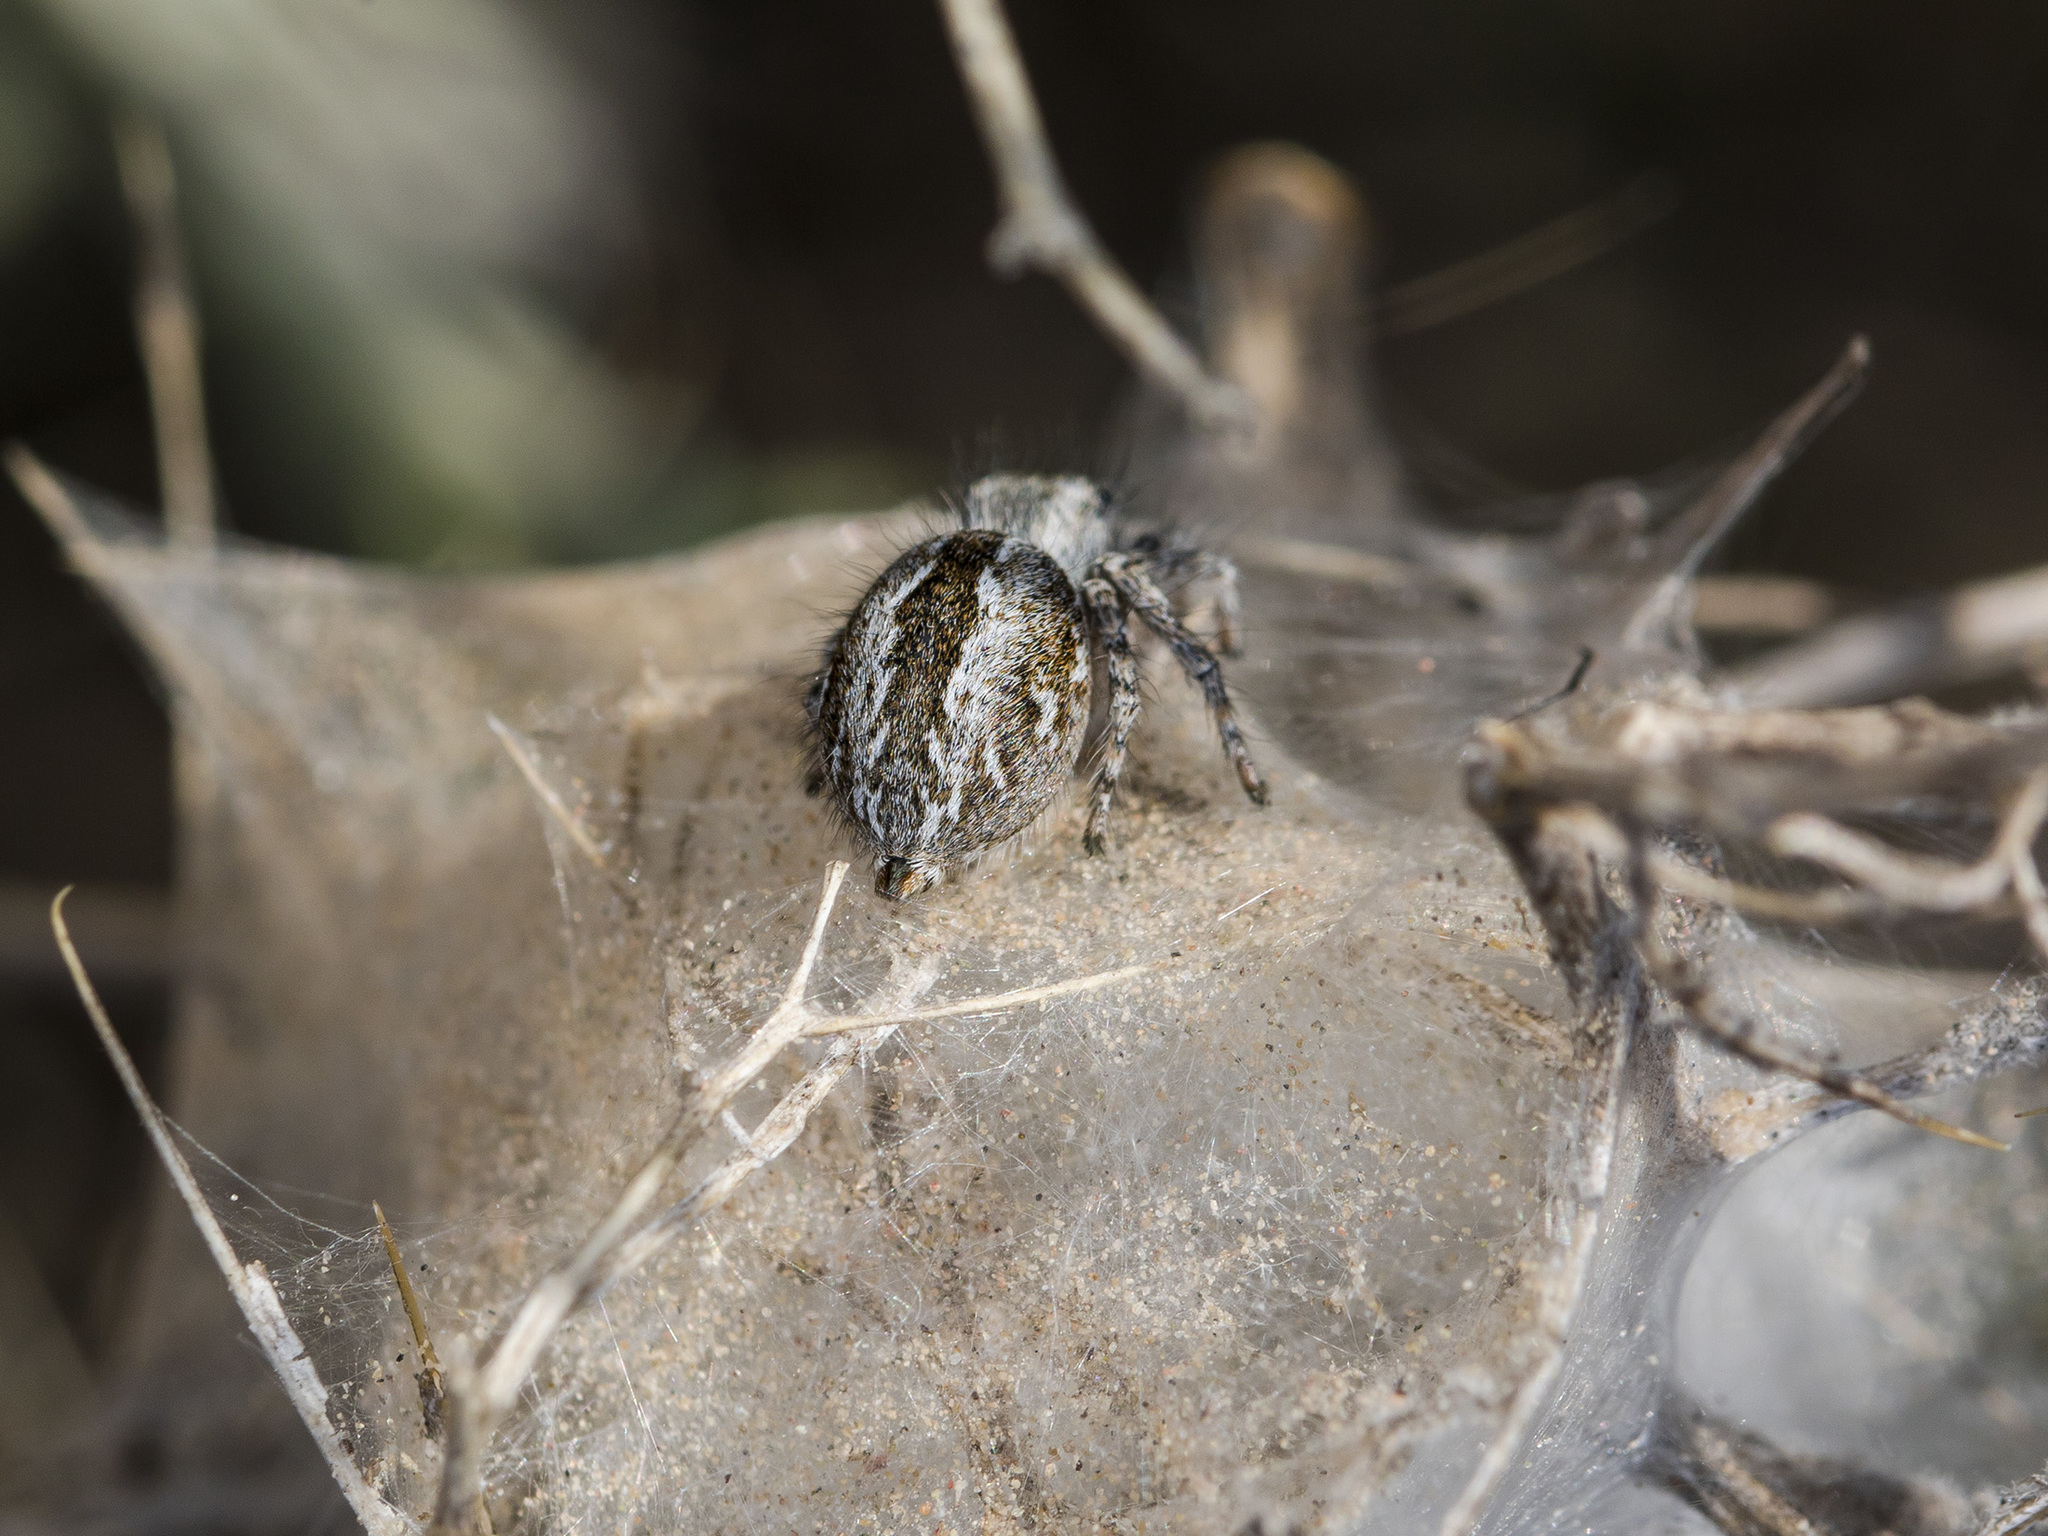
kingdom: Animalia
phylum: Arthropoda
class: Arachnida
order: Araneae
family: Salticidae
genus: Mogrus
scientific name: Mogrus larisae
